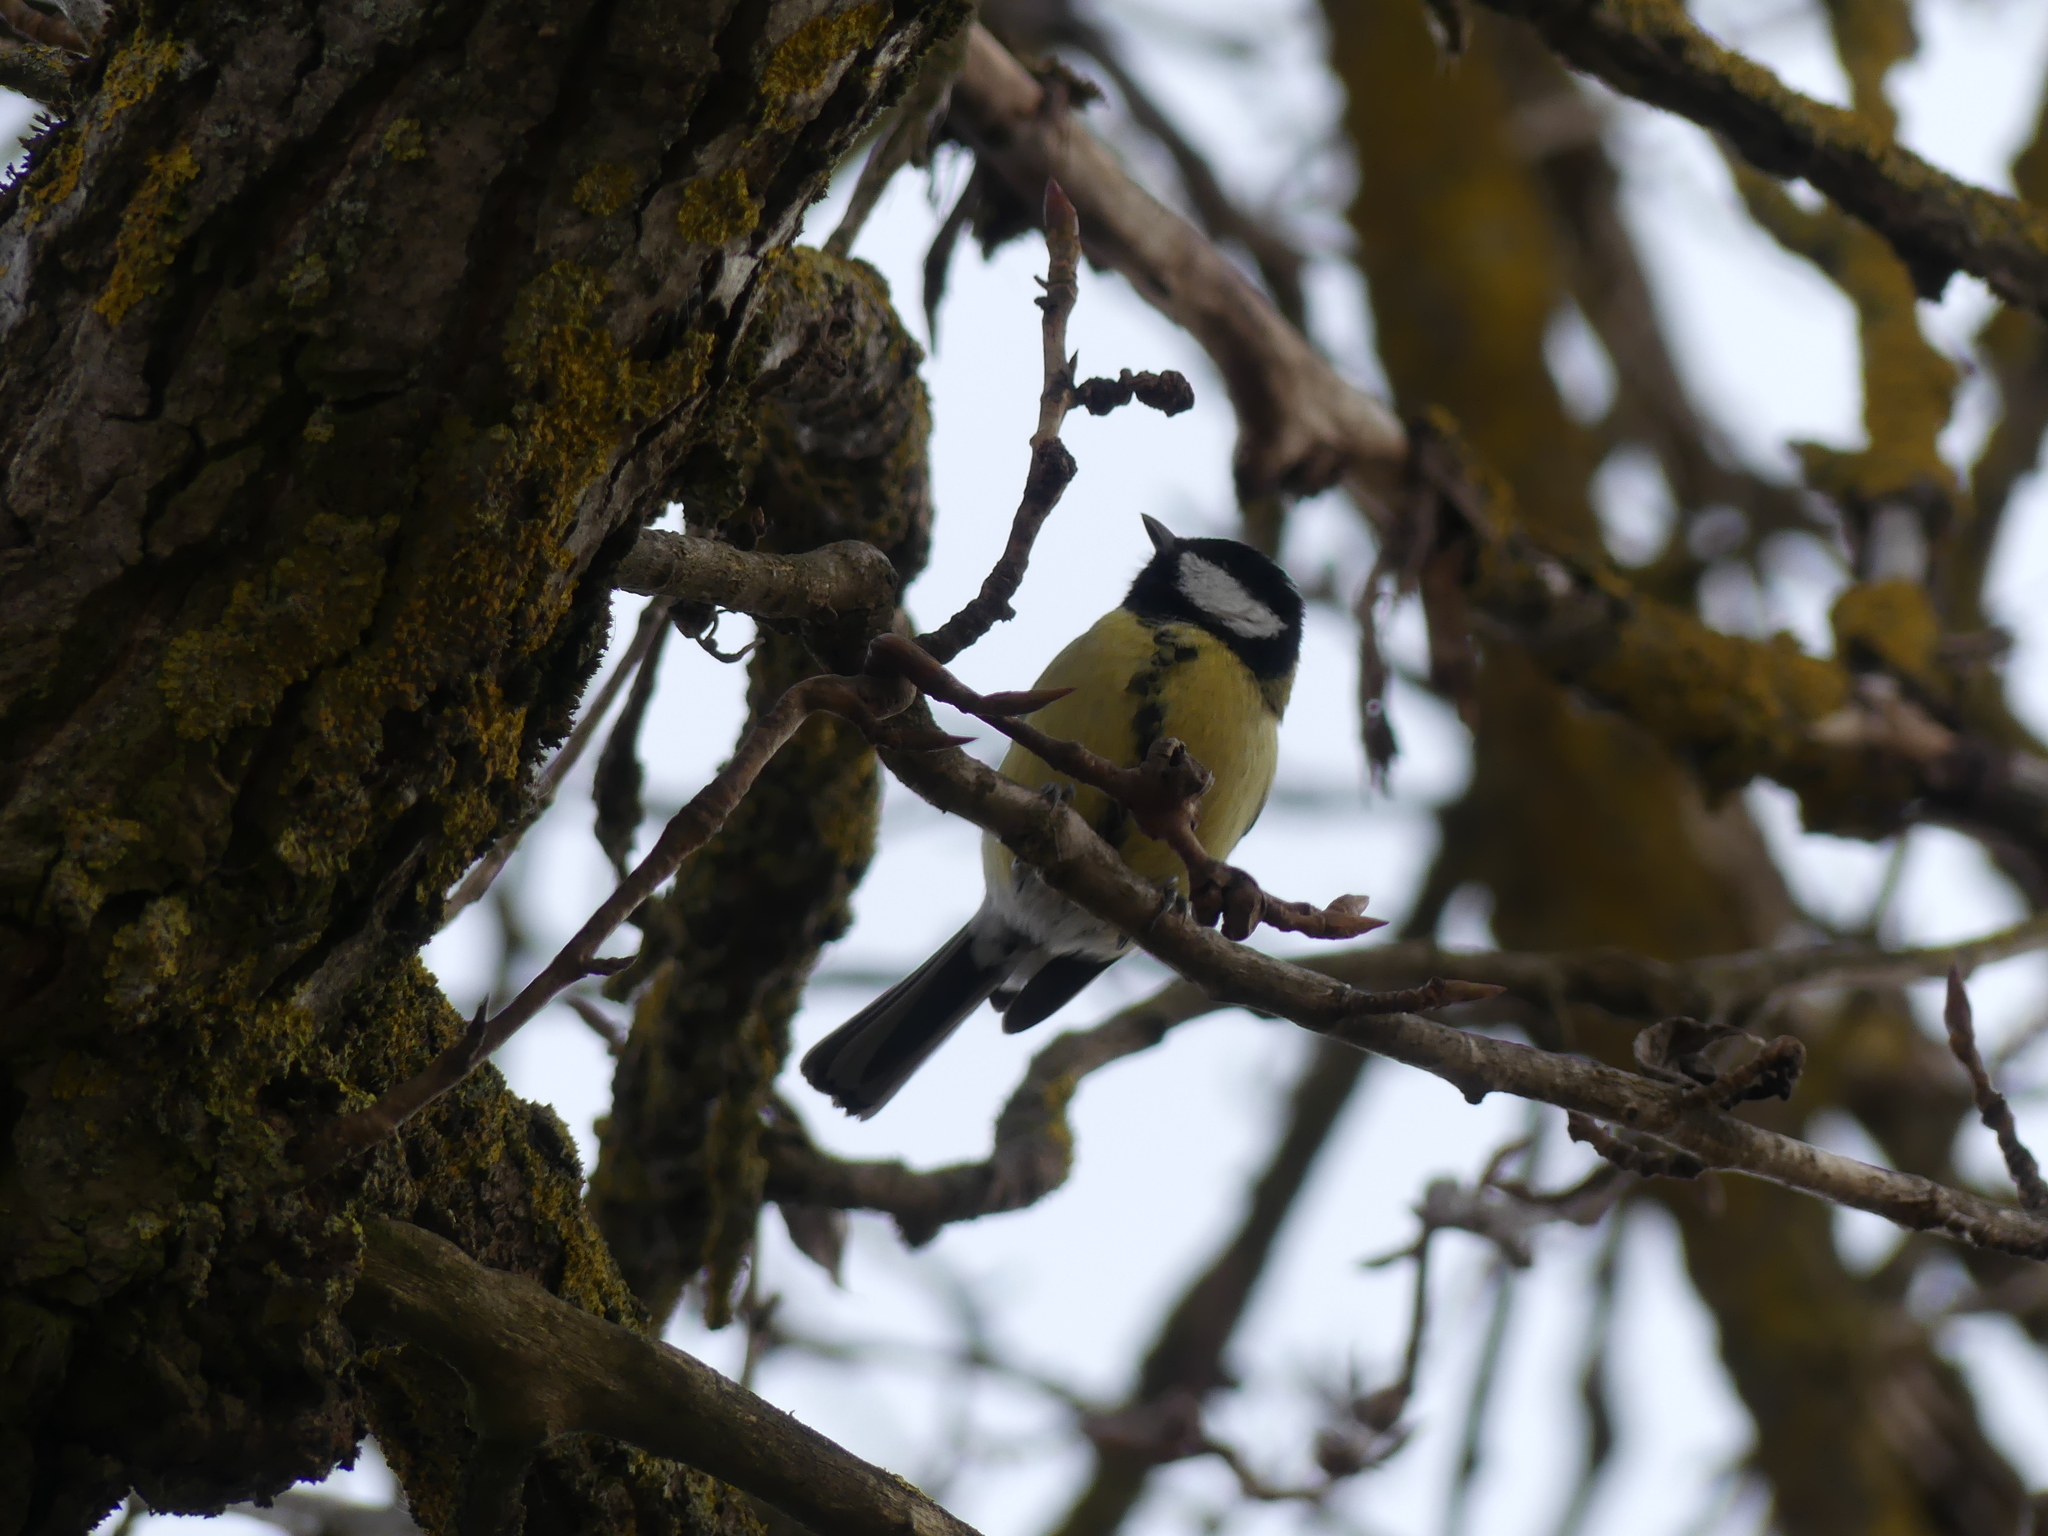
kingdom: Animalia
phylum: Chordata
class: Aves
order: Passeriformes
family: Paridae
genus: Parus
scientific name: Parus major
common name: Great tit
